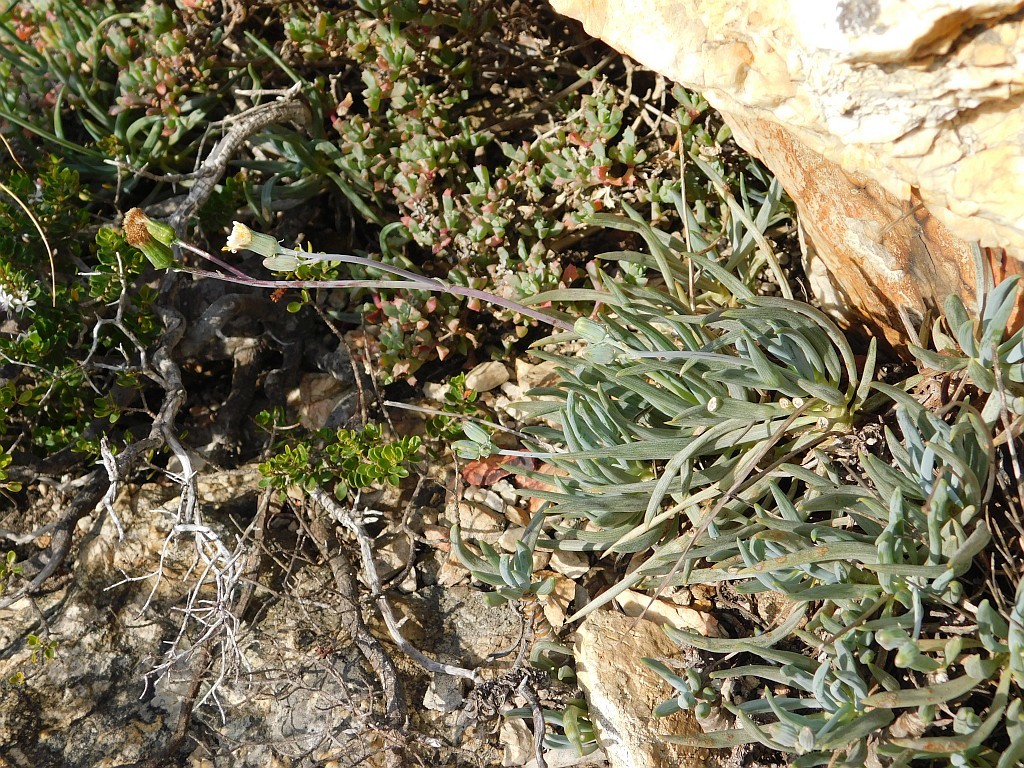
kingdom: Plantae
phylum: Tracheophyta
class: Magnoliopsida
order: Asterales
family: Asteraceae
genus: Curio
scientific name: Curio talinoides
